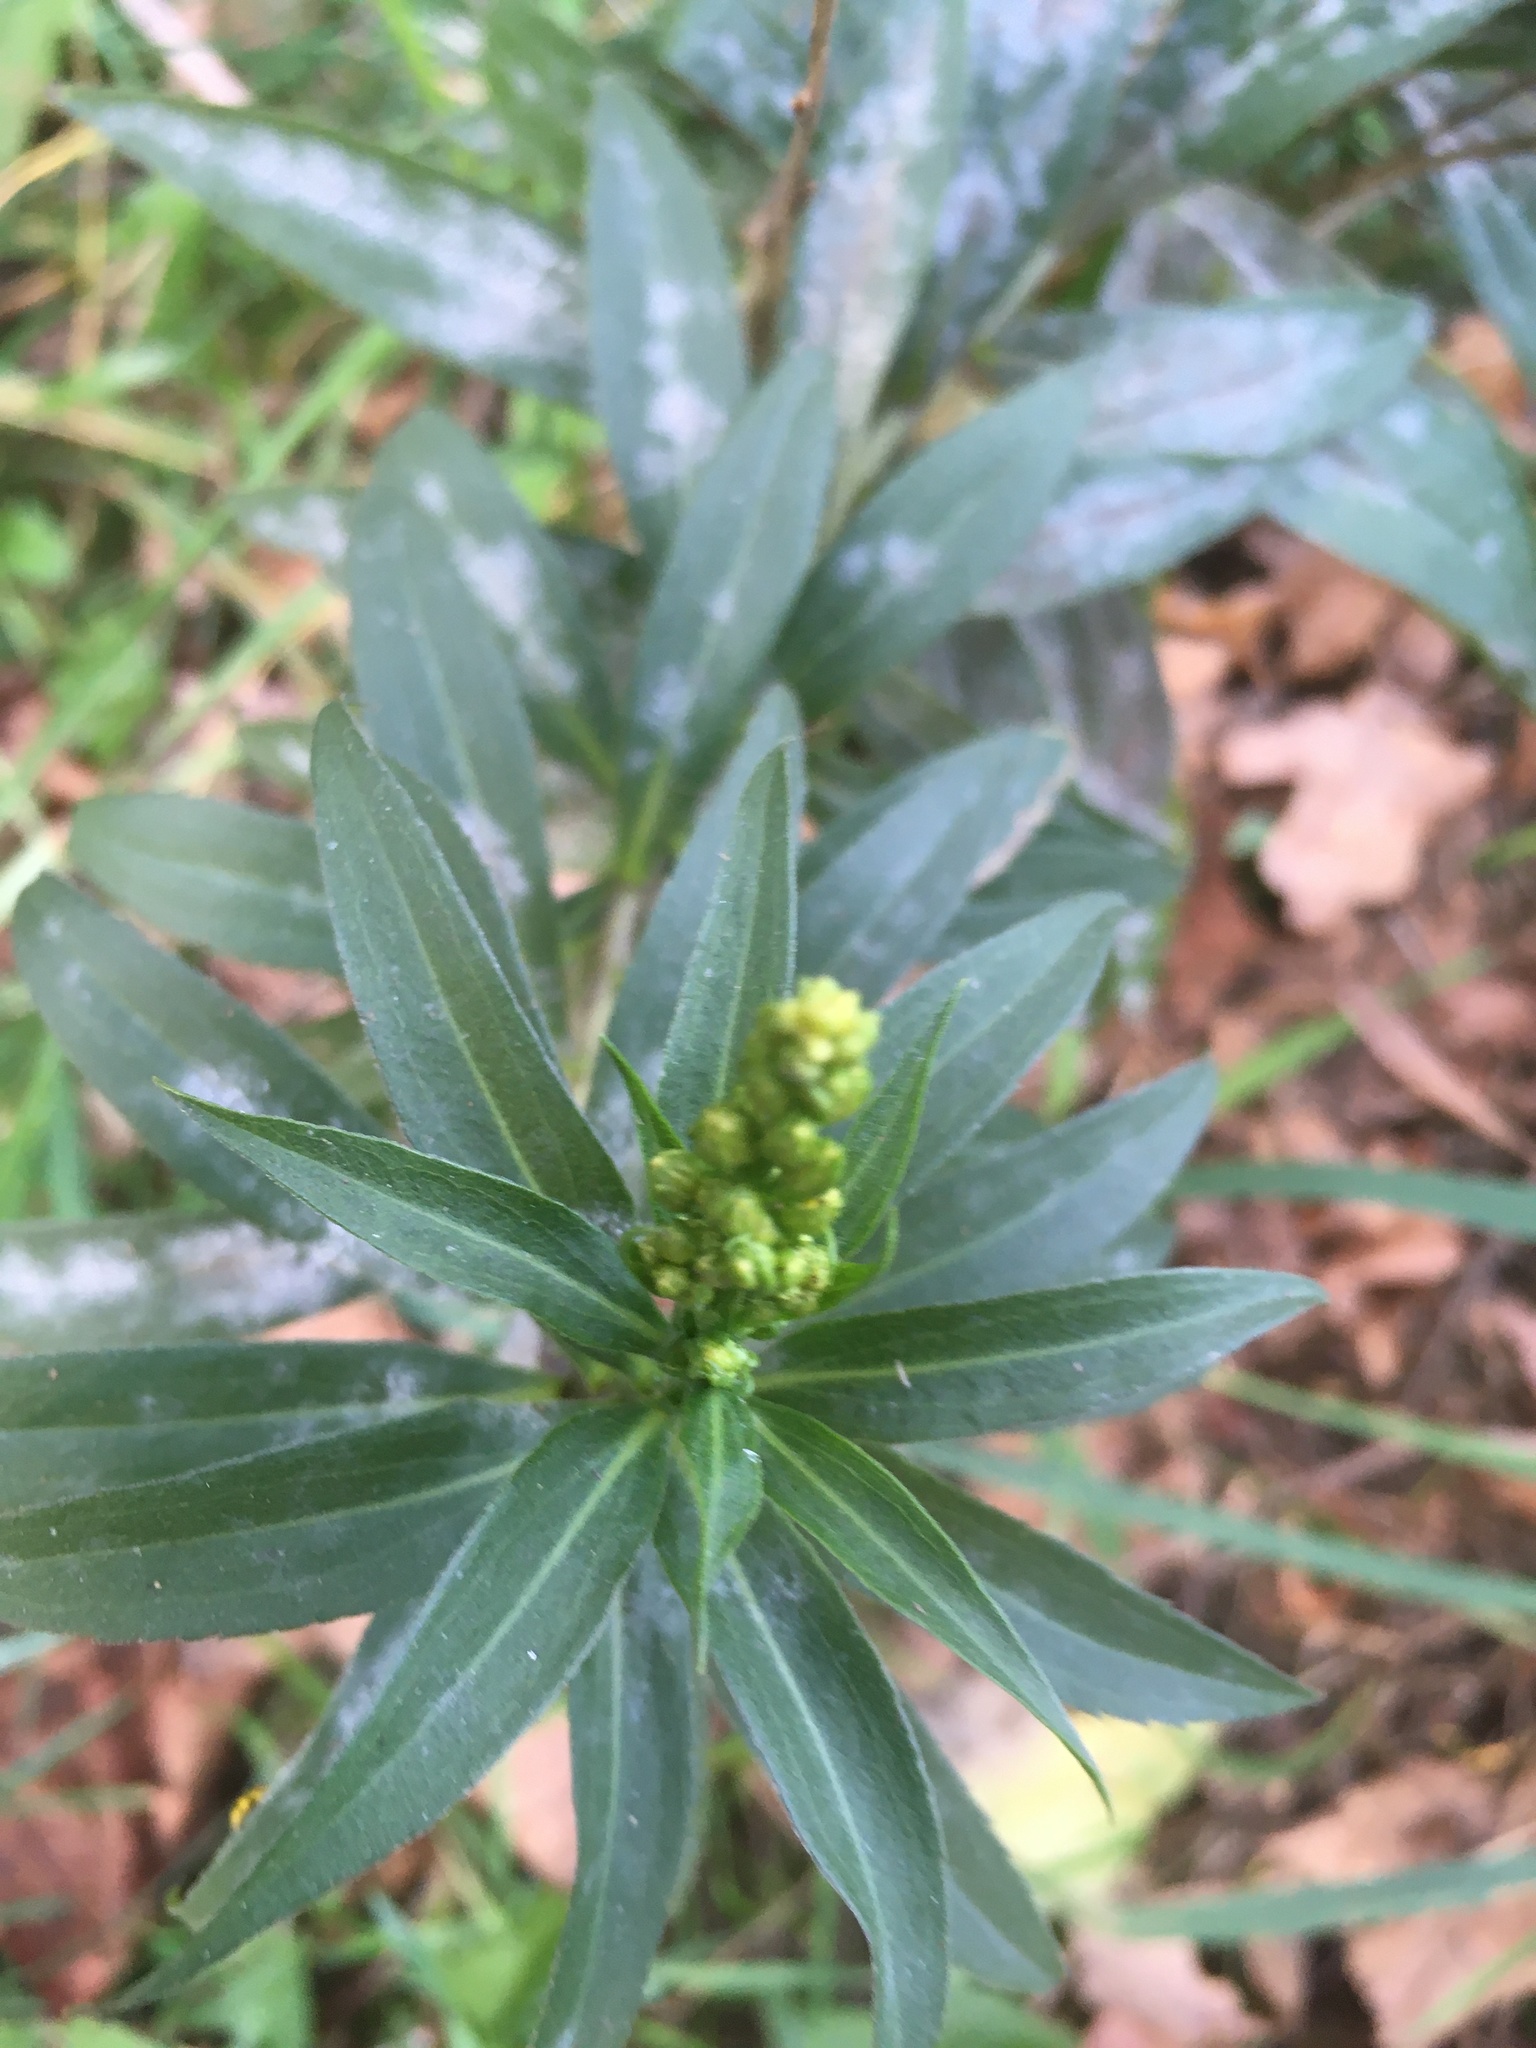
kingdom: Plantae
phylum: Tracheophyta
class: Magnoliopsida
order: Brassicales
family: Brassicaceae
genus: Erysimum
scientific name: Erysimum cheiranthoides
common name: Treacle mustard
